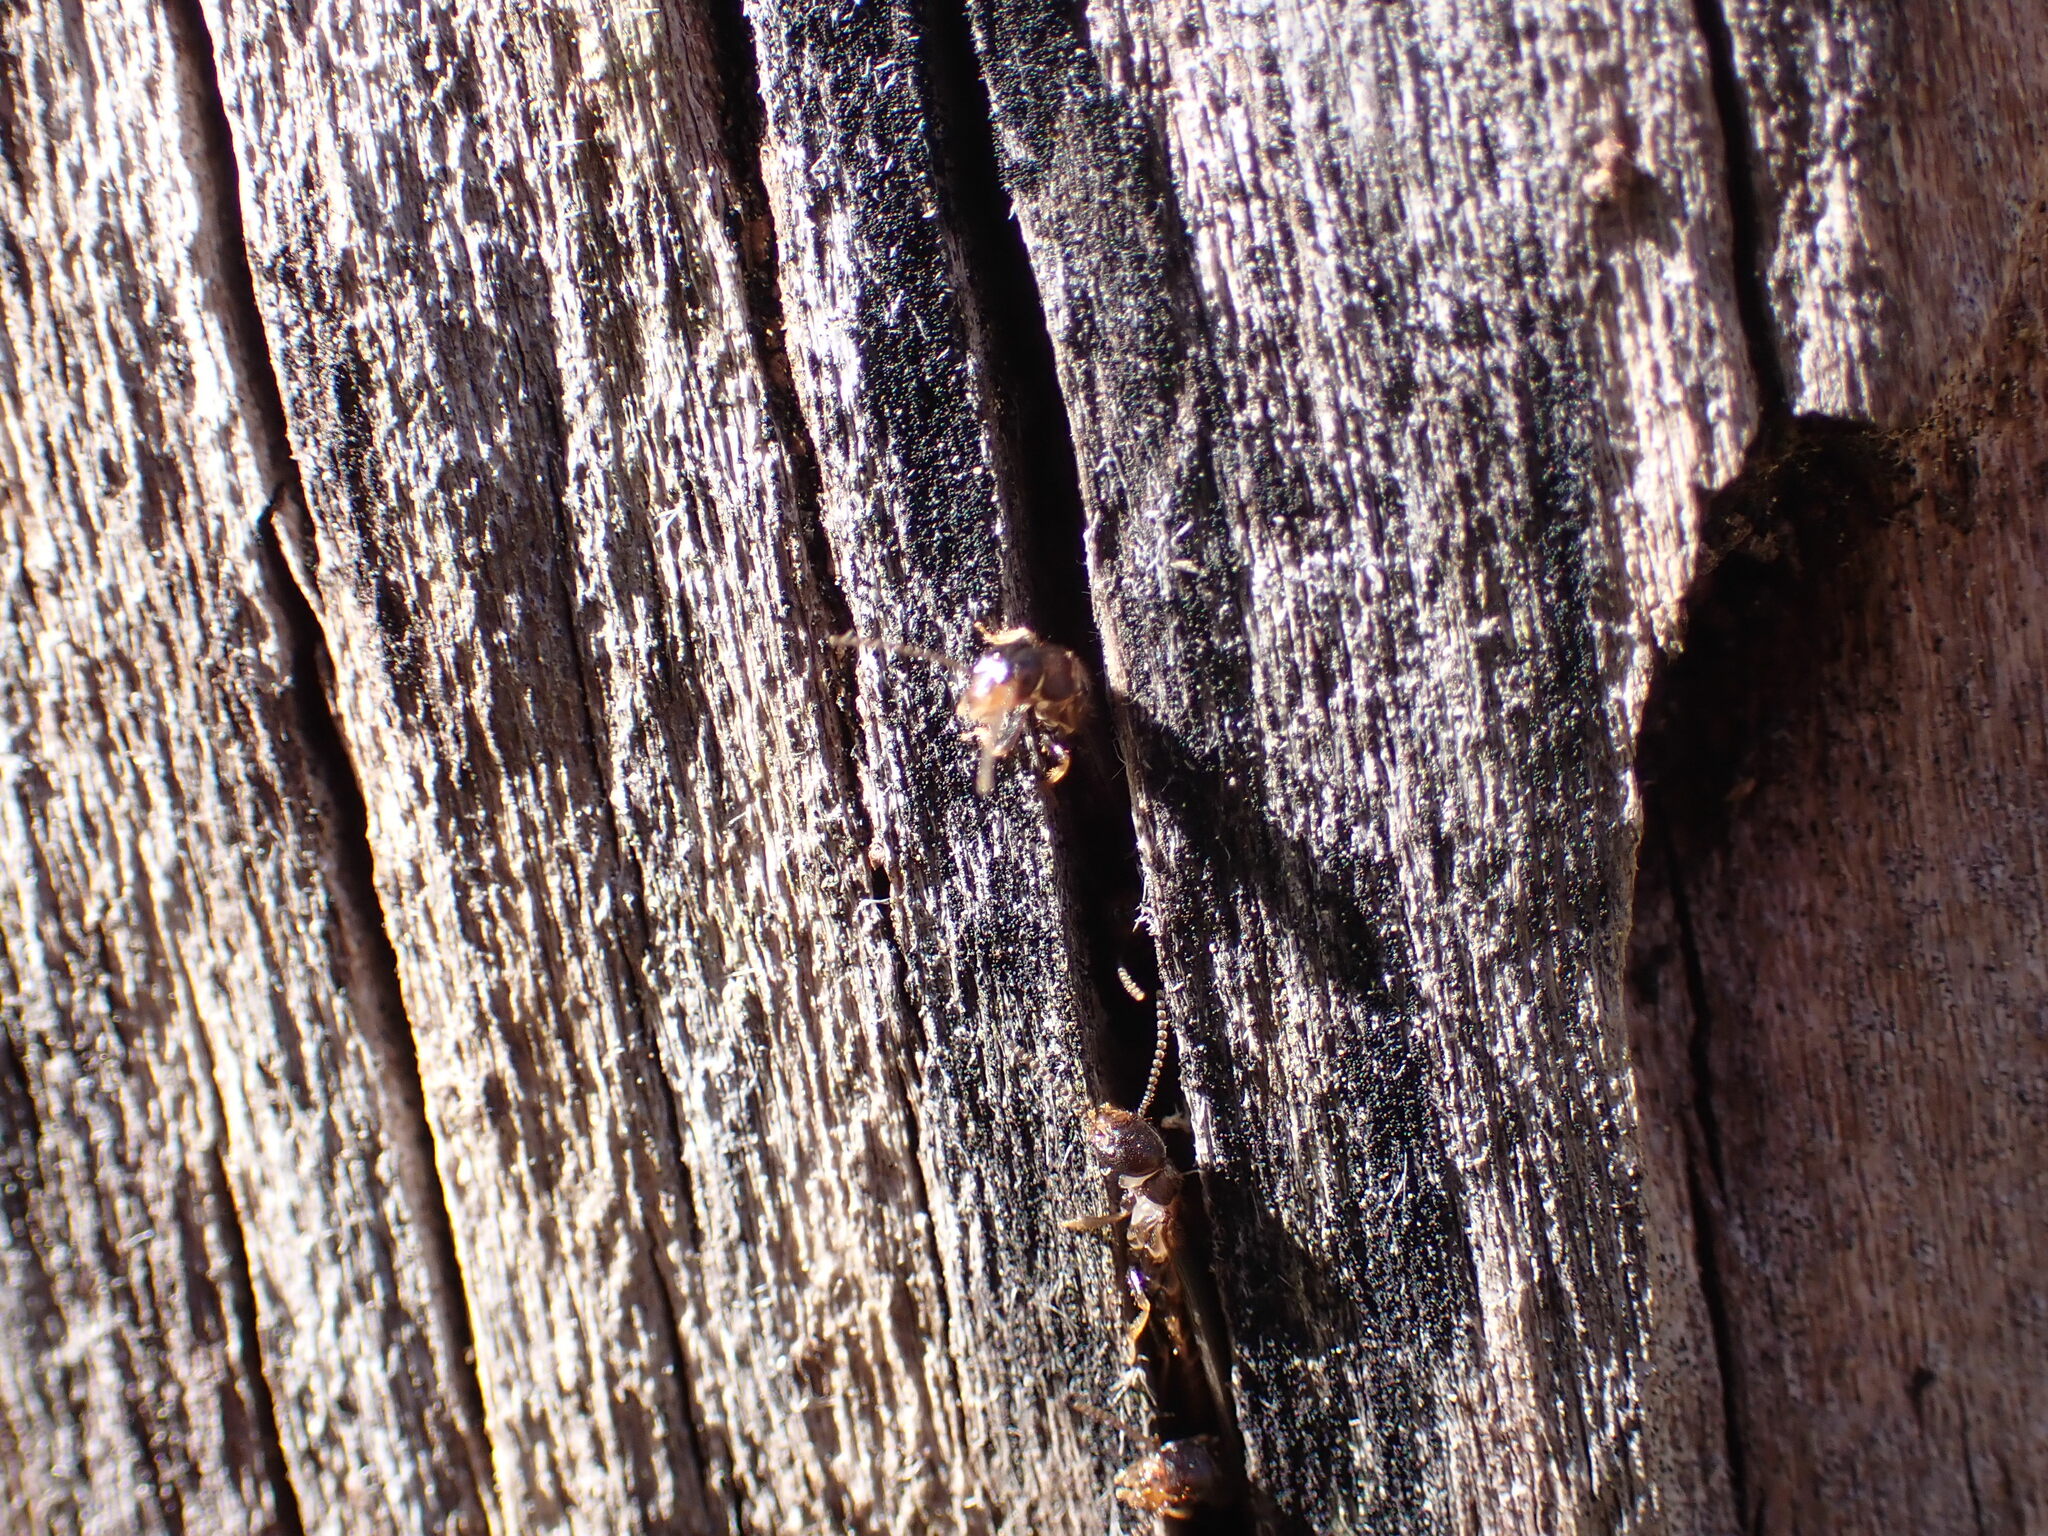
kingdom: Animalia
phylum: Arthropoda
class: Insecta
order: Blattodea
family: Rhinotermitidae
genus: Reticulitermes
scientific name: Reticulitermes flavipes
